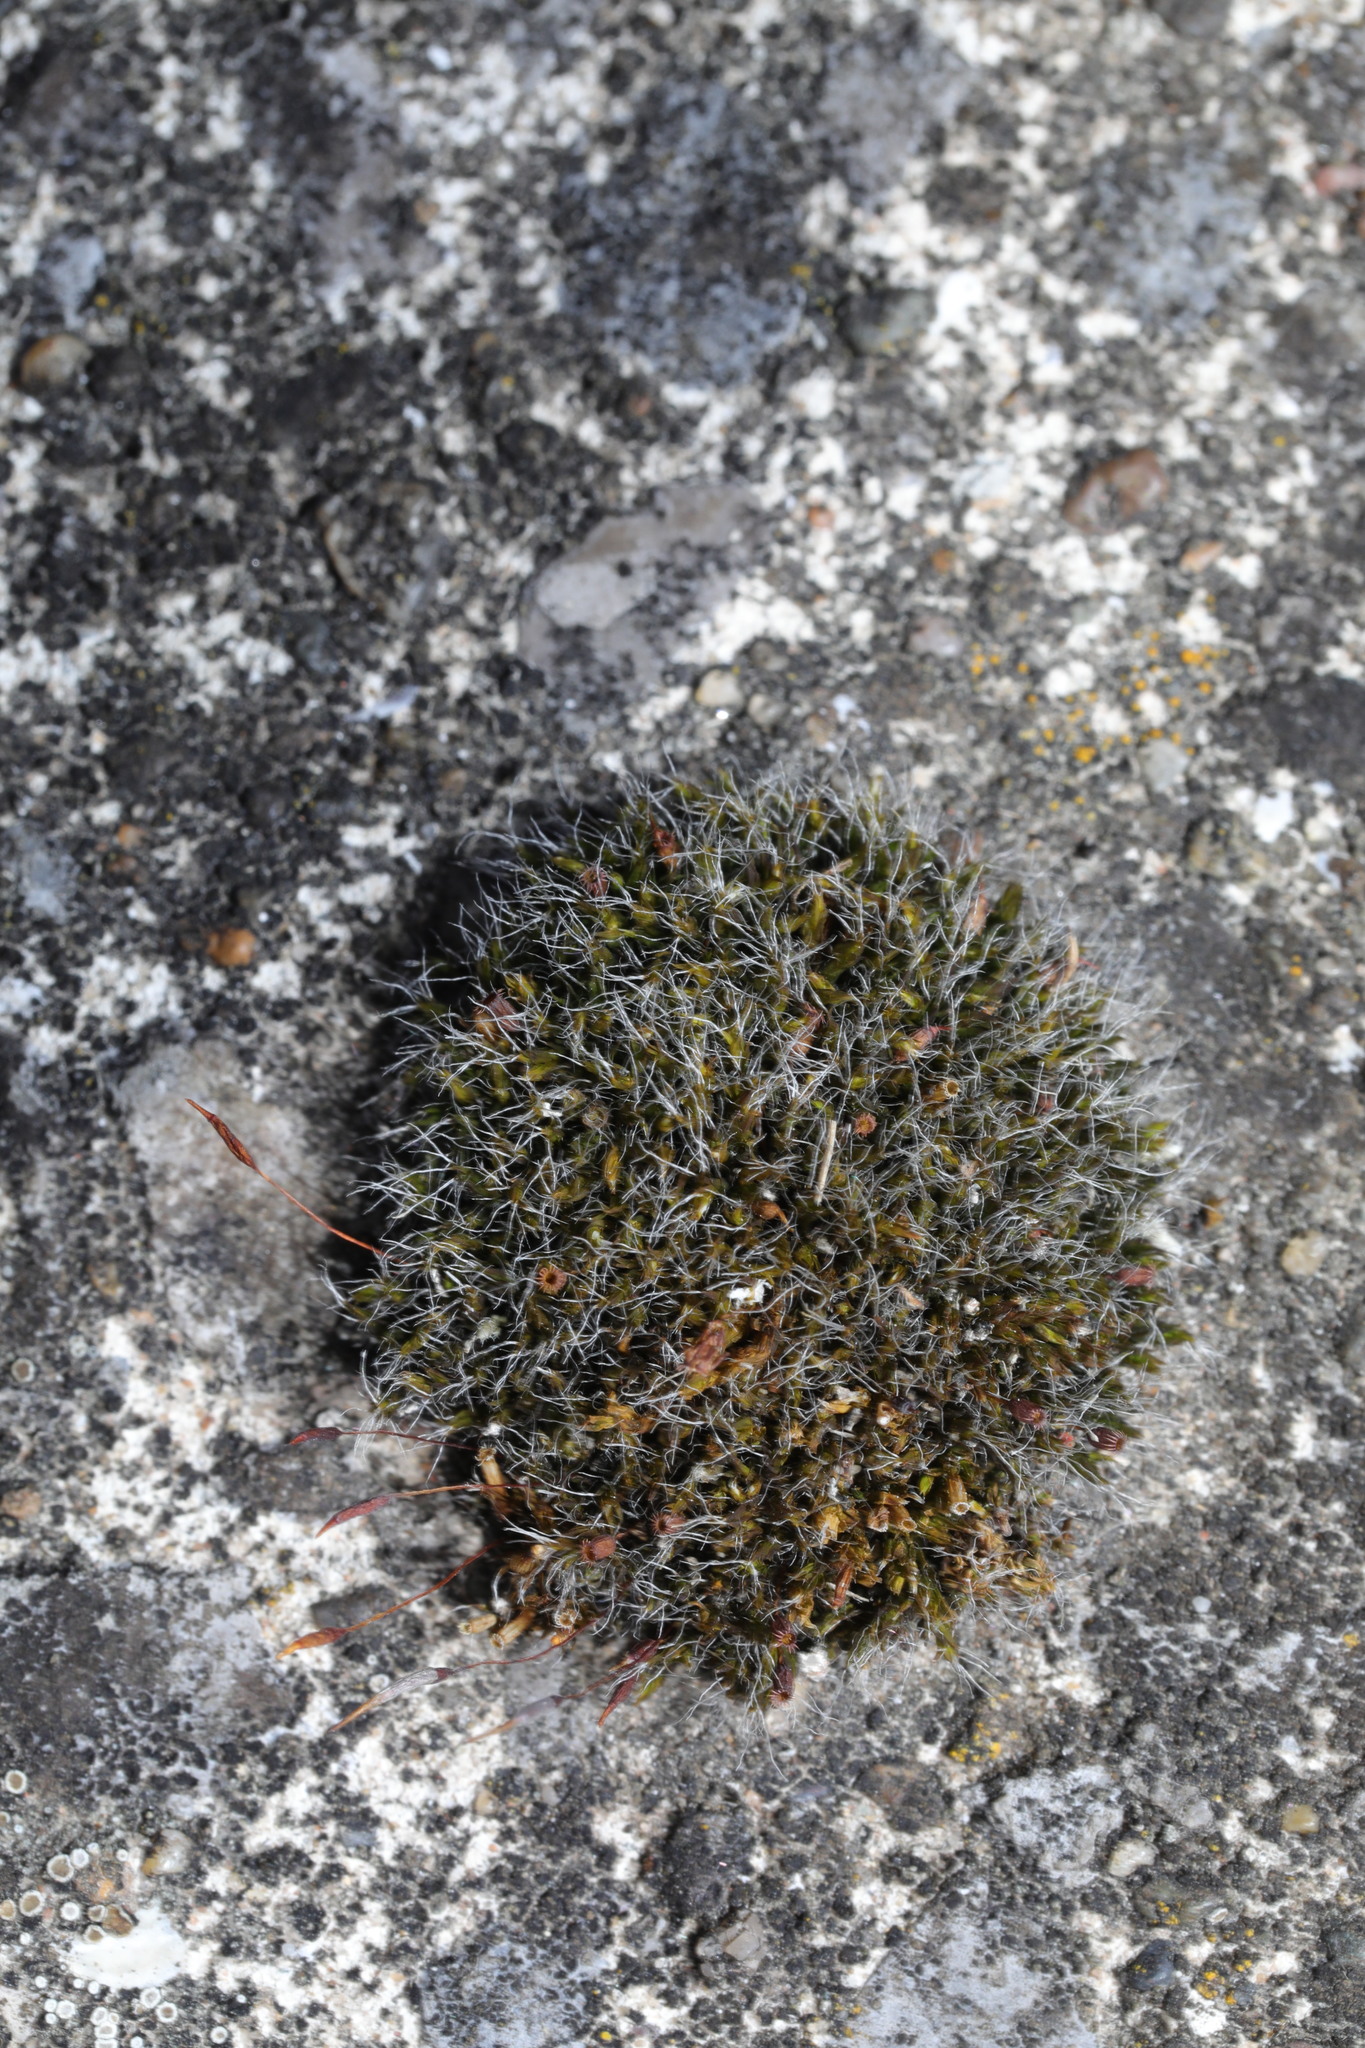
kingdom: Plantae
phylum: Bryophyta
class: Bryopsida
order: Grimmiales
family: Grimmiaceae
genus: Grimmia
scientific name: Grimmia pulvinata
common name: Grey-cushioned grimmia
